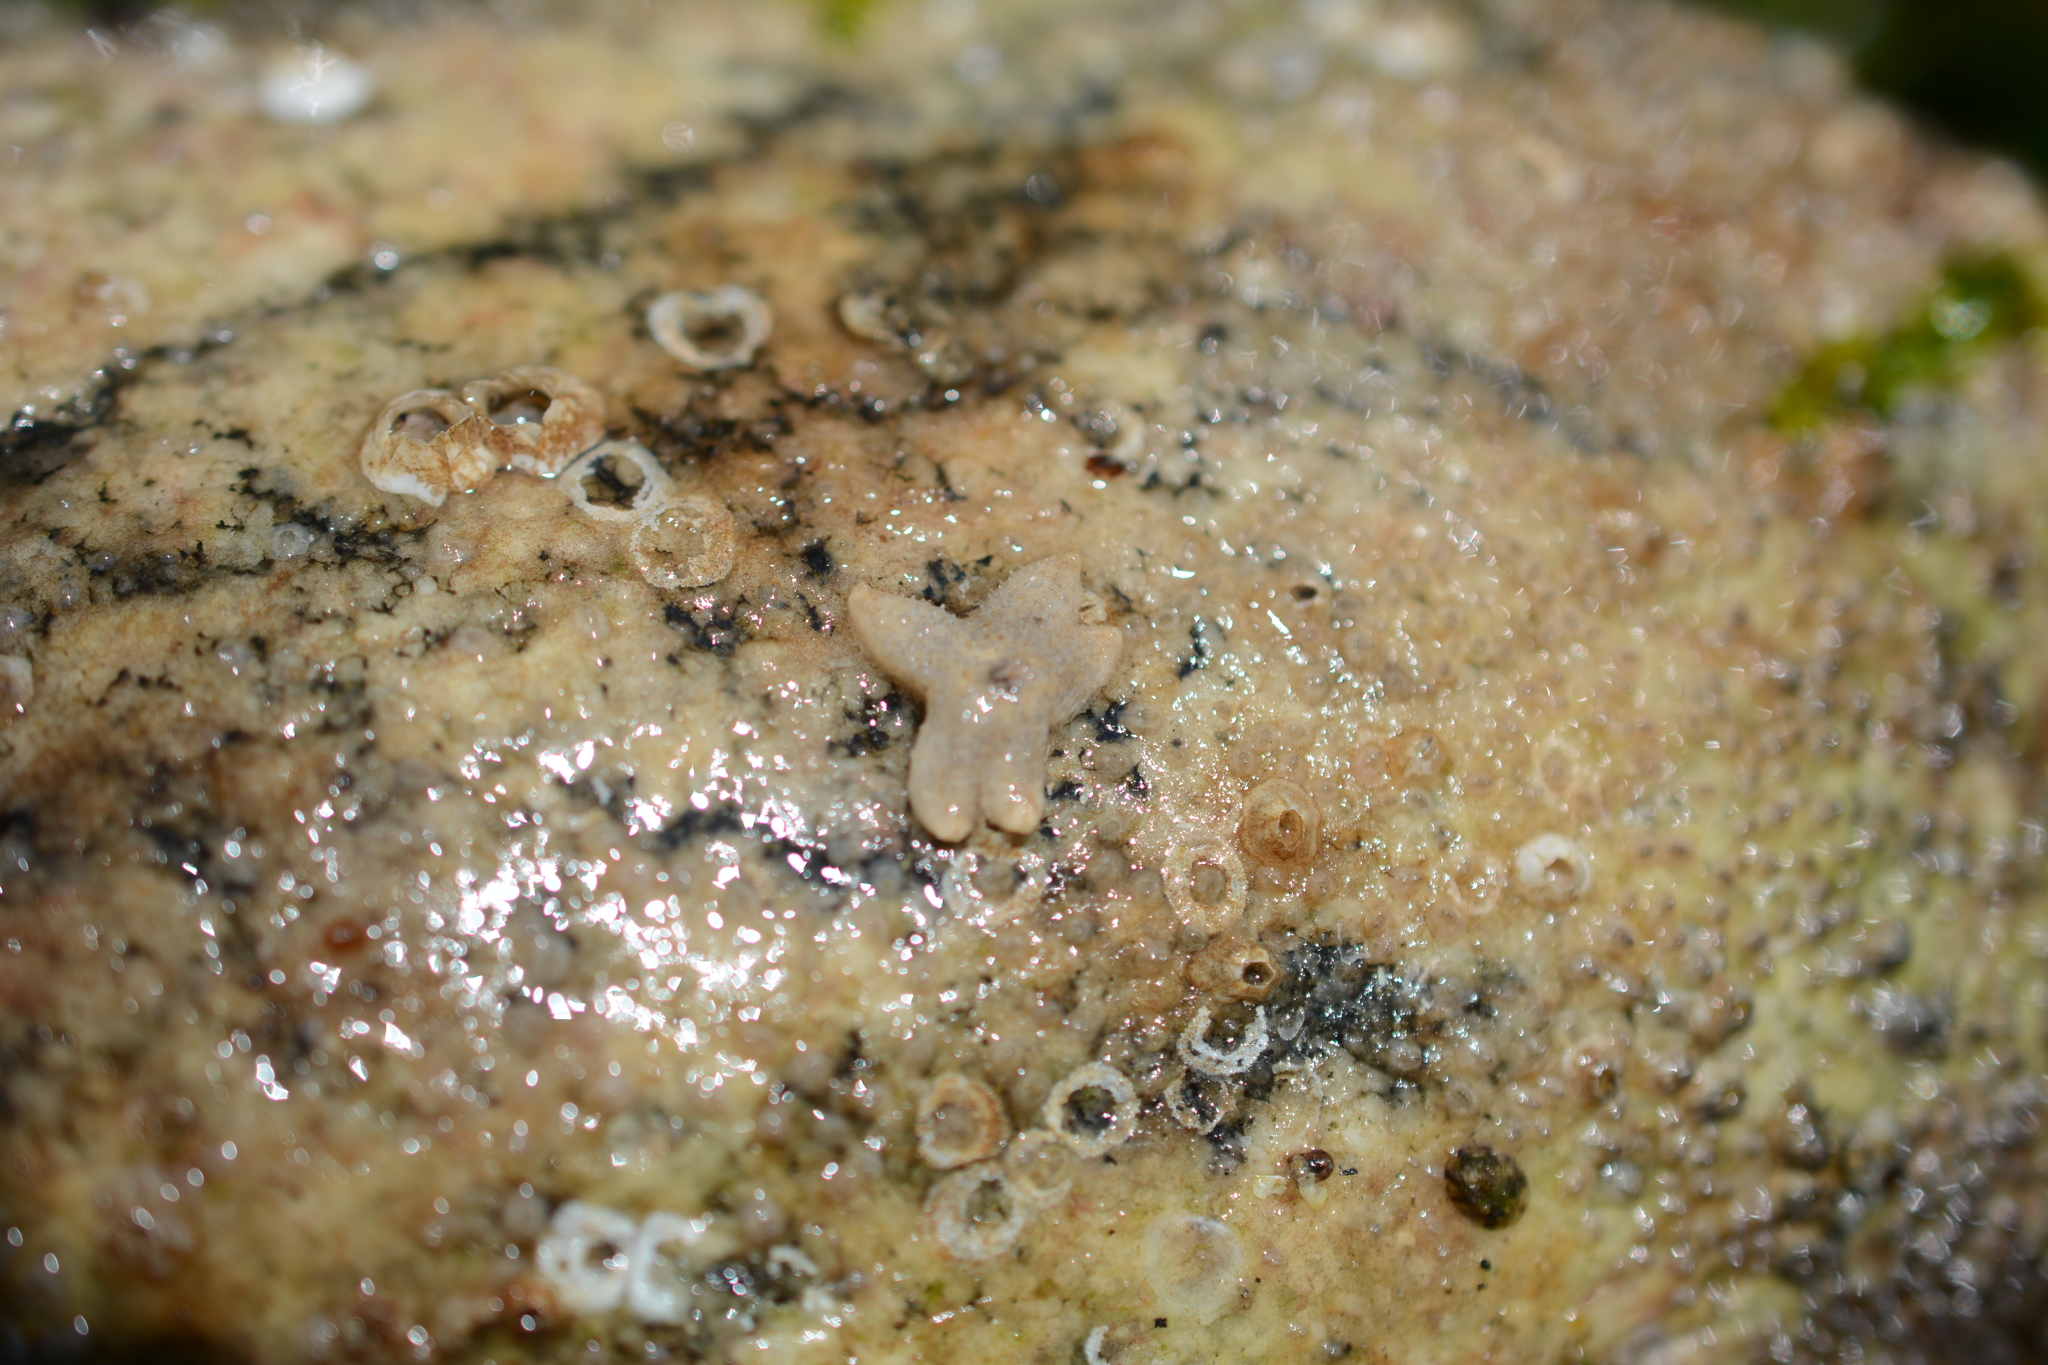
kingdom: Animalia
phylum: Echinodermata
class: Asteroidea
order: Forcipulatida
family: Asteriidae
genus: Pisaster
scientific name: Pisaster ochraceus
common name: Ochre stars
